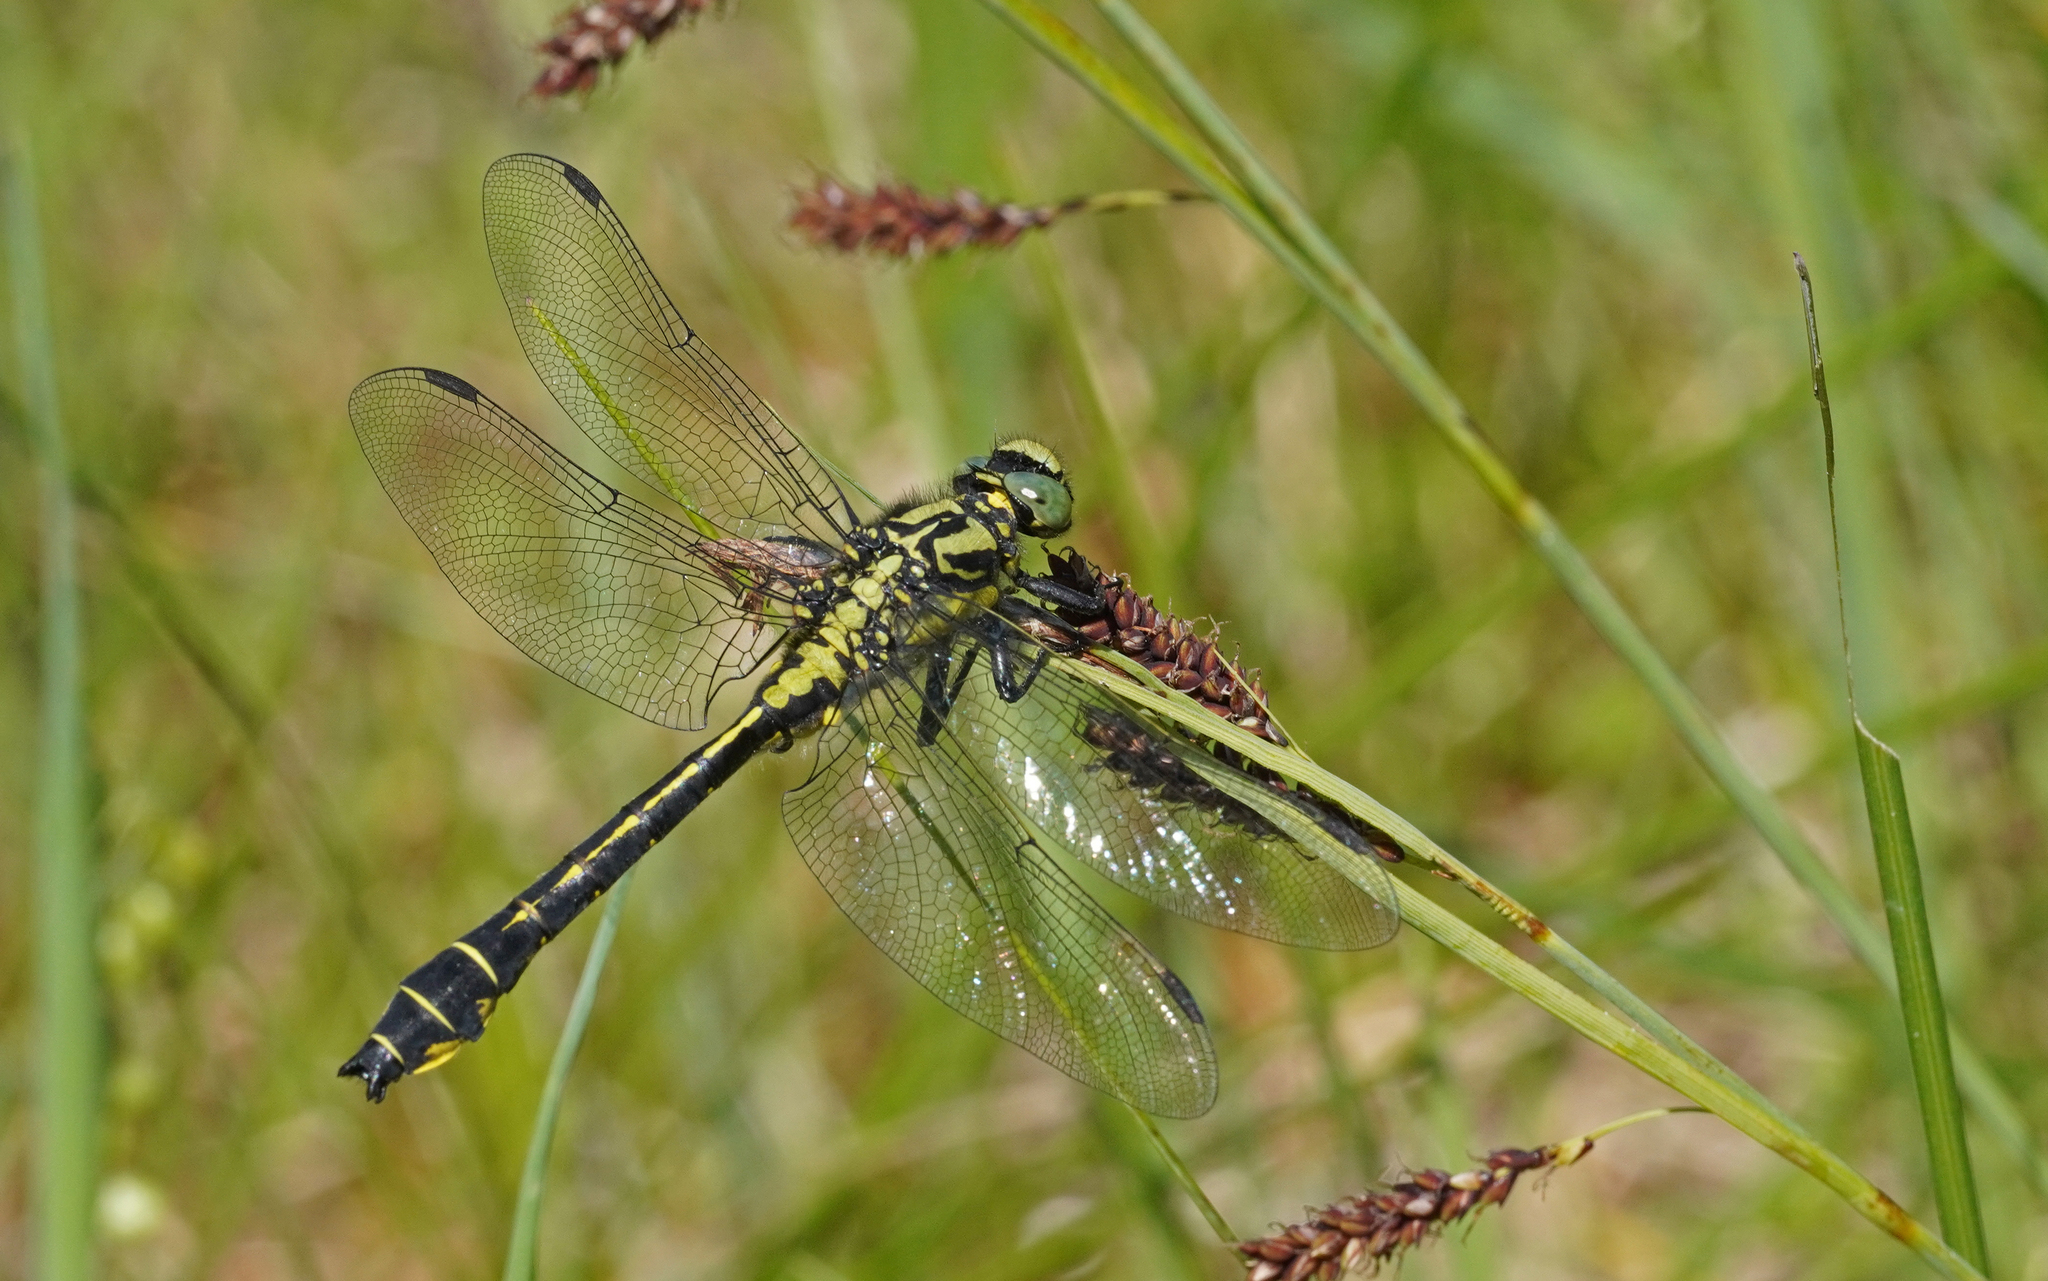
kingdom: Animalia
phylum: Arthropoda
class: Insecta
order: Odonata
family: Gomphidae
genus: Gomphus
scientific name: Gomphus vulgatissimus
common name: Club-tailed dragonfly
